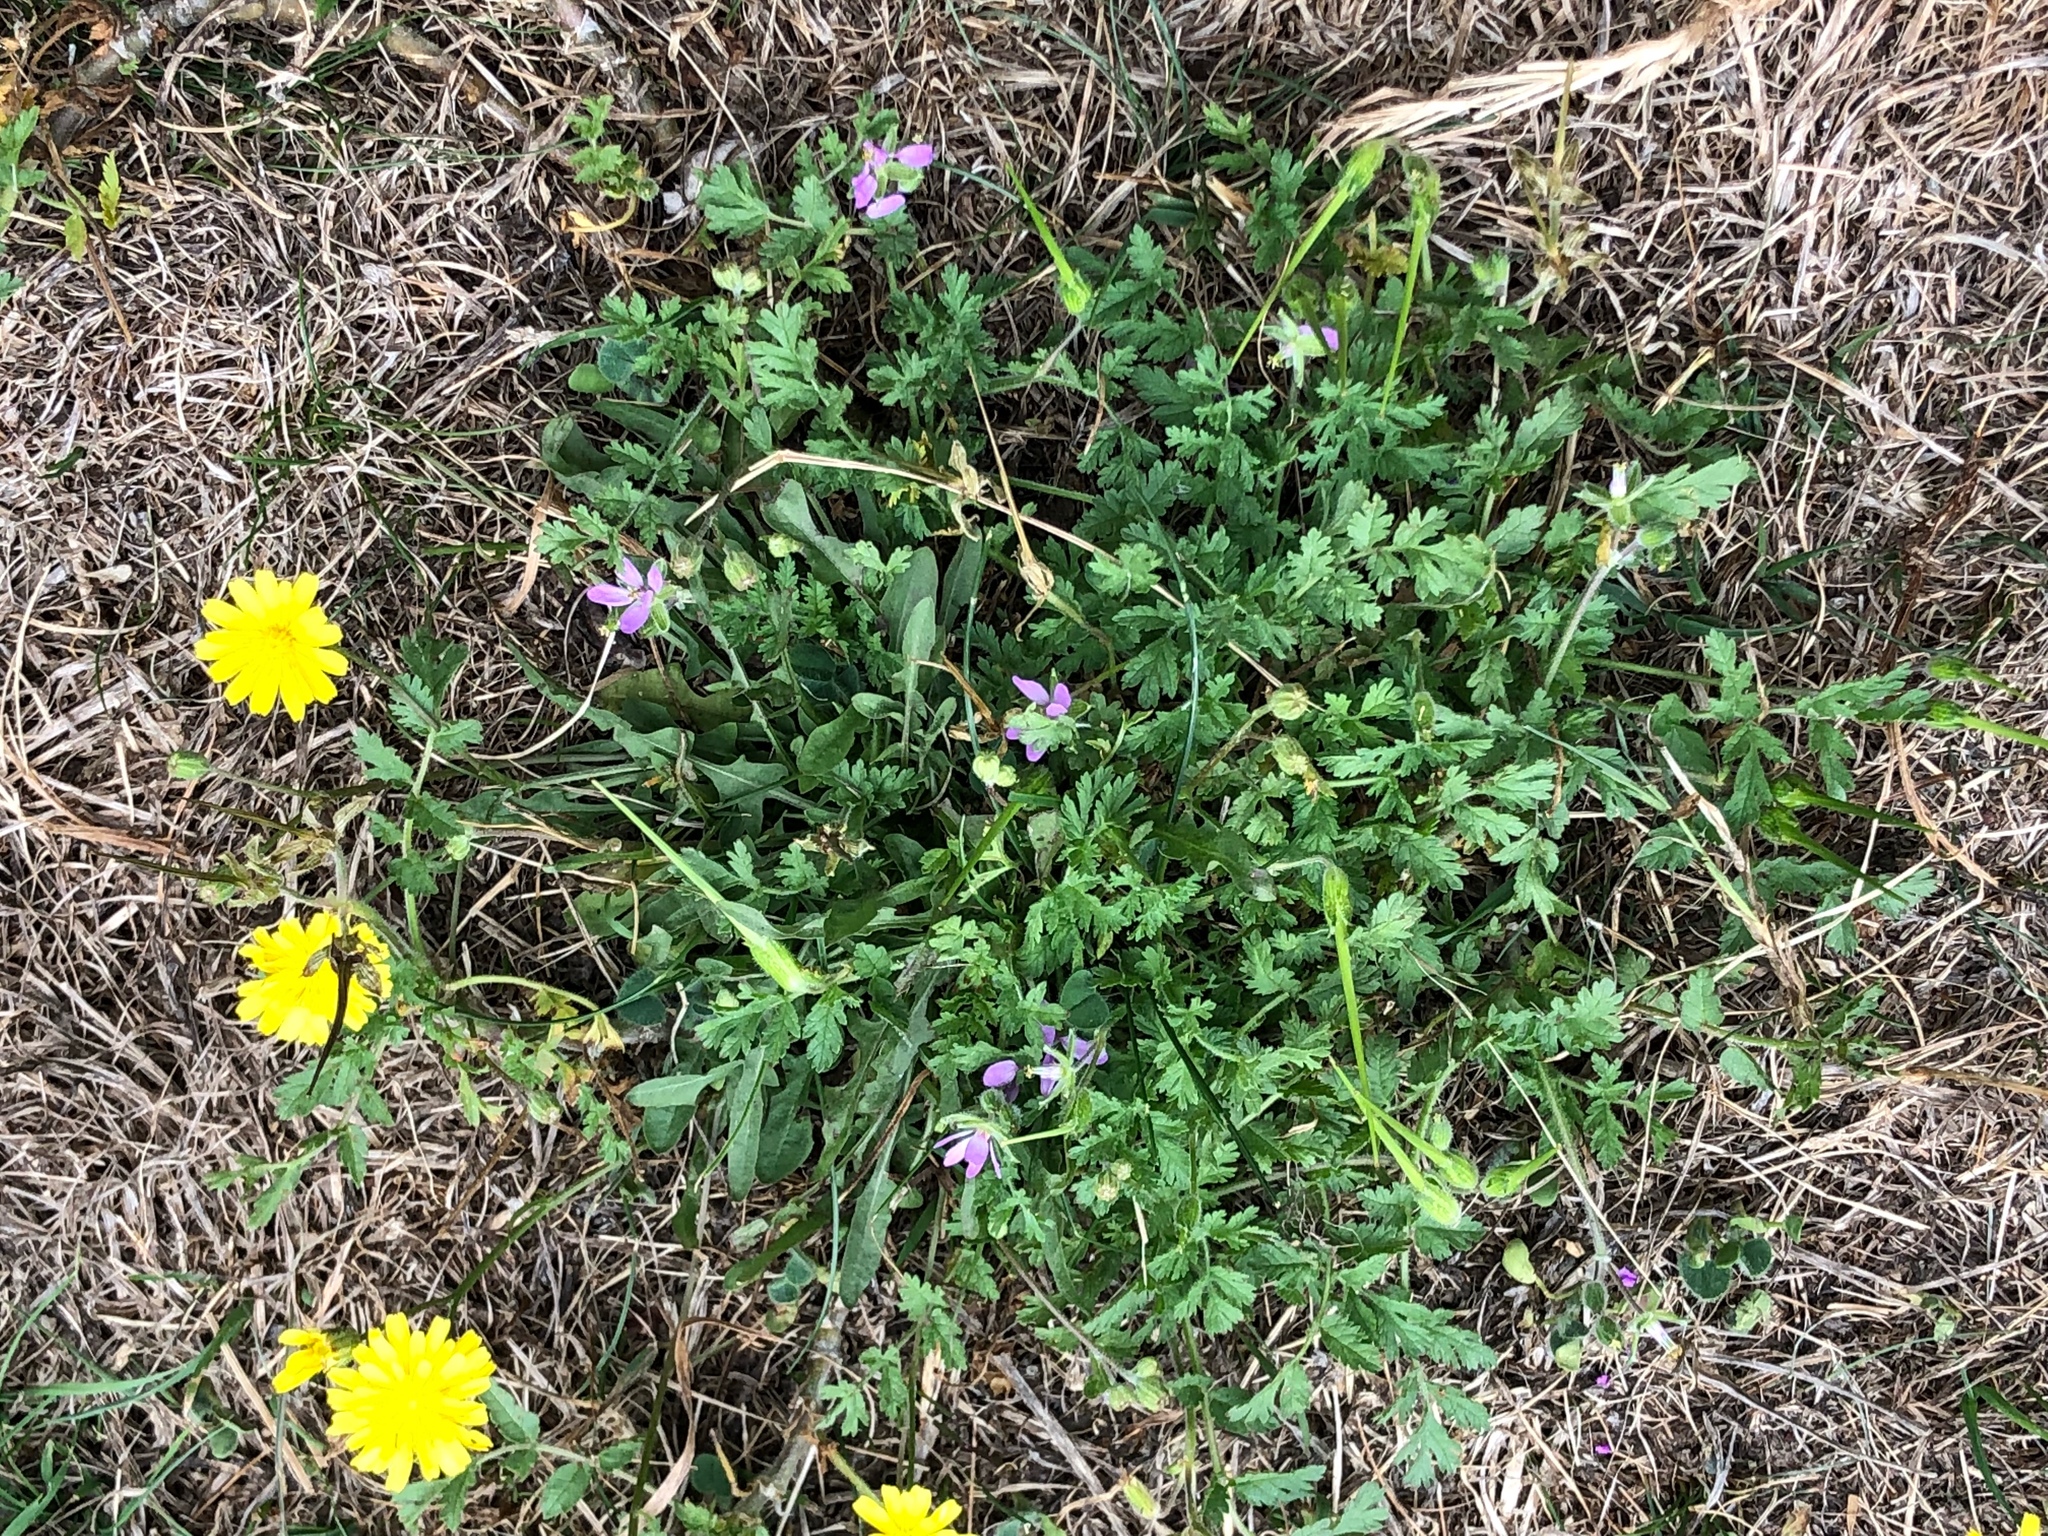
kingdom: Plantae
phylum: Tracheophyta
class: Magnoliopsida
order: Geraniales
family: Geraniaceae
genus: Erodium
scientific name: Erodium cicutarium
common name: Common stork's-bill
